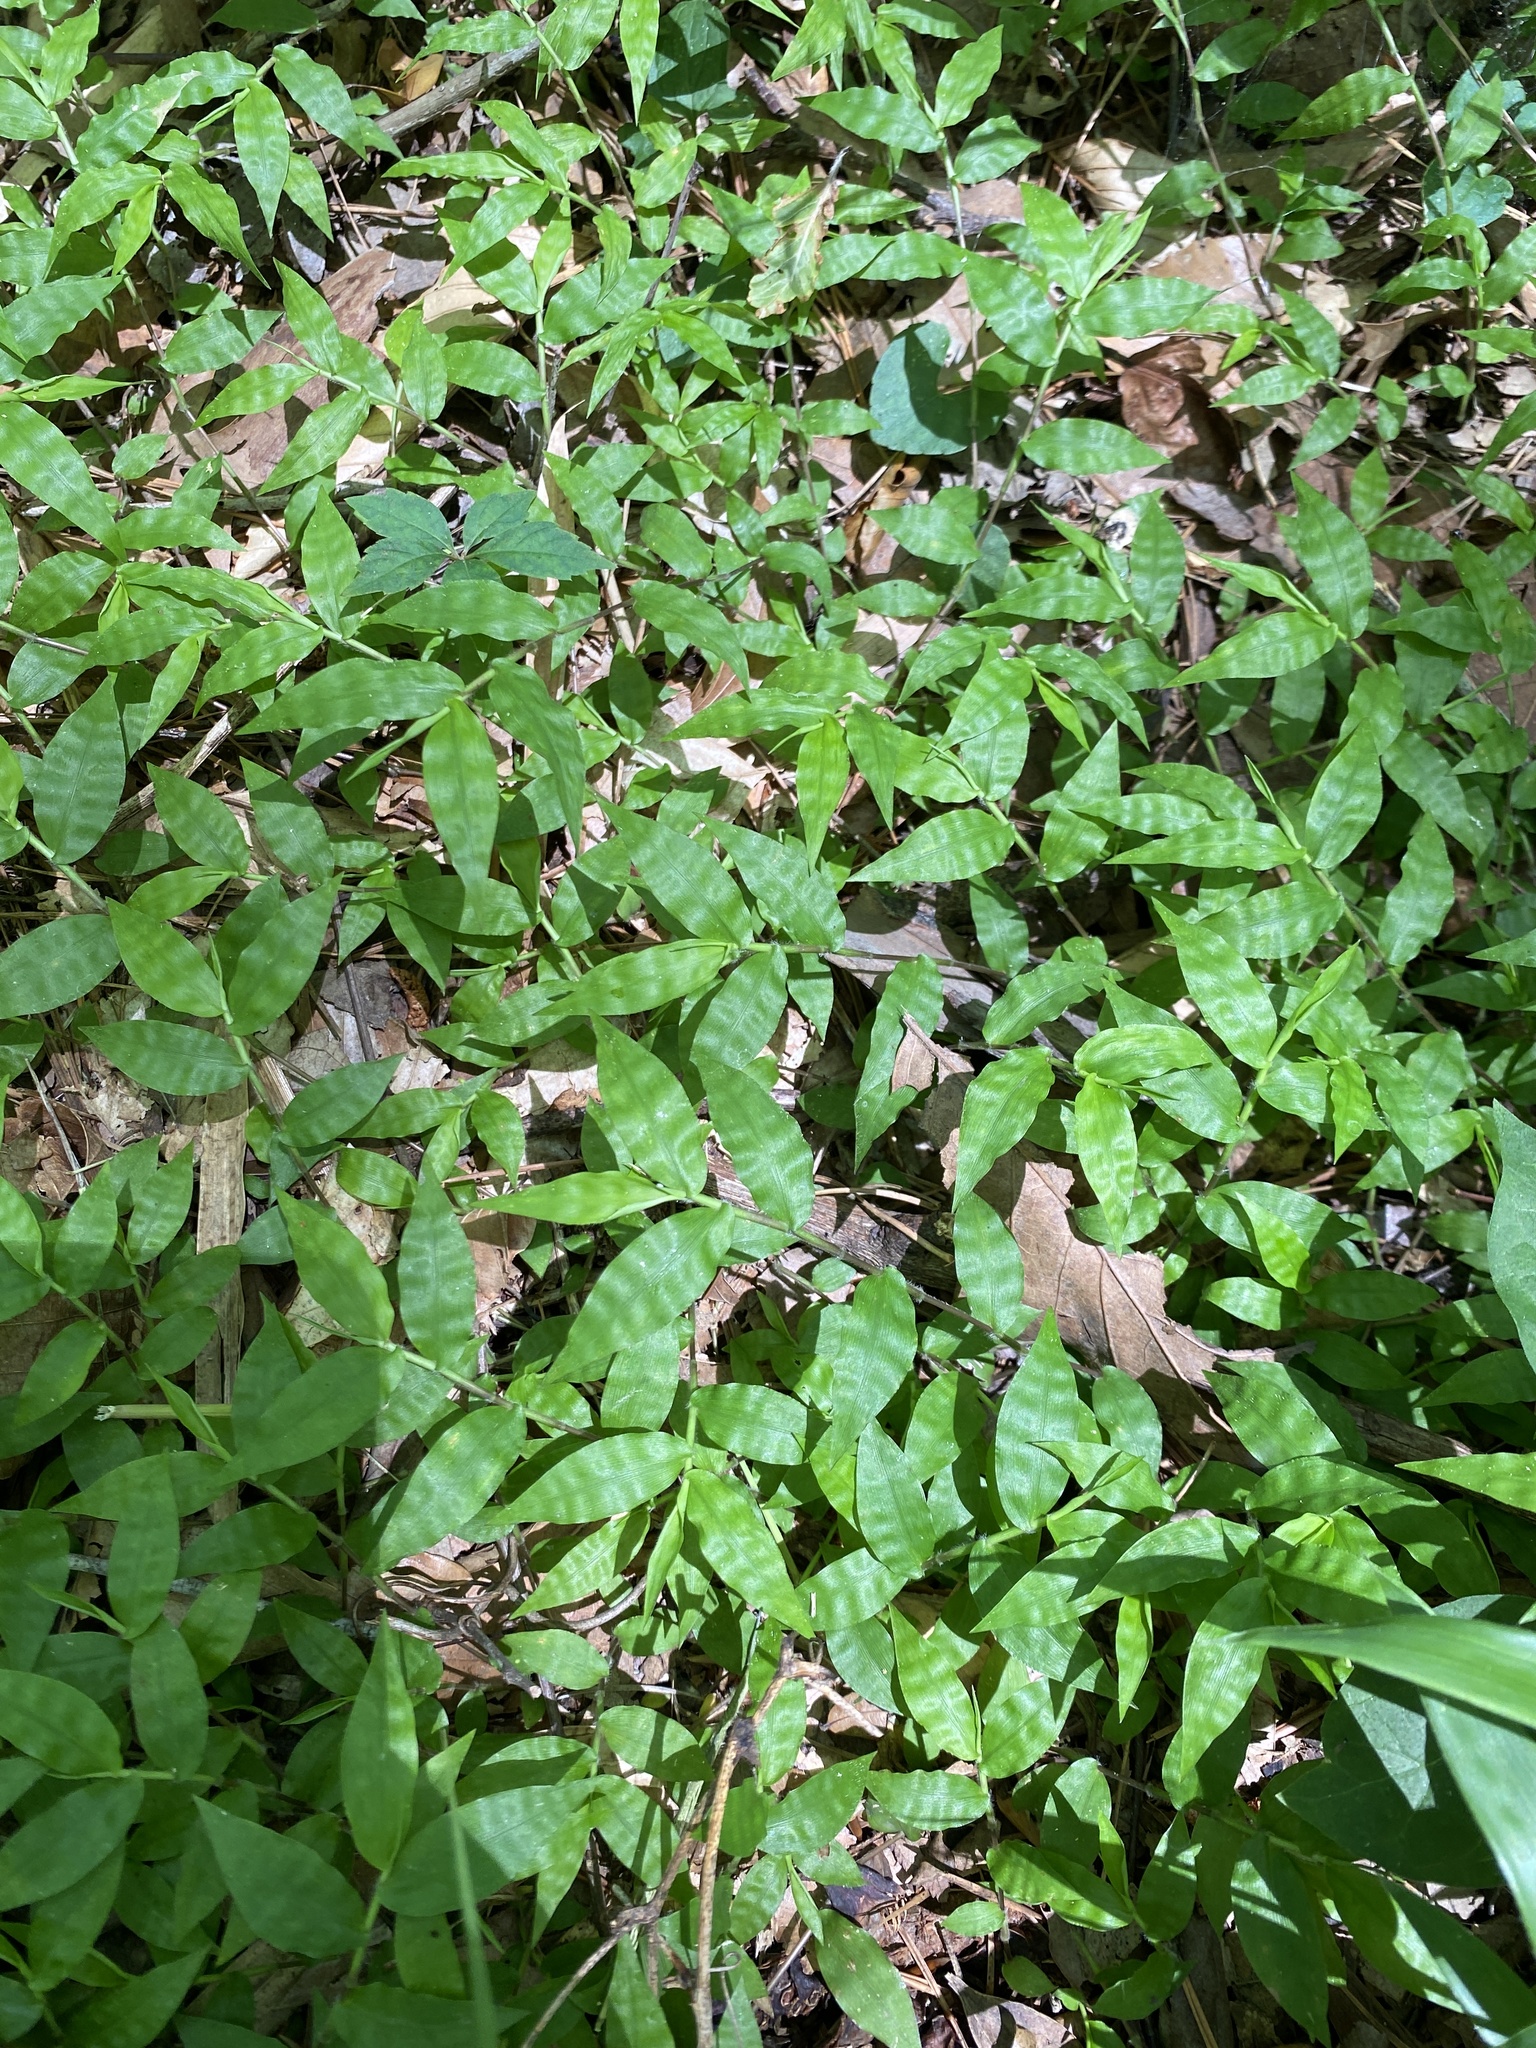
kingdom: Plantae
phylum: Tracheophyta
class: Liliopsida
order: Poales
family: Poaceae
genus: Oplismenus
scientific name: Oplismenus hirtellus
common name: Basketgrass
